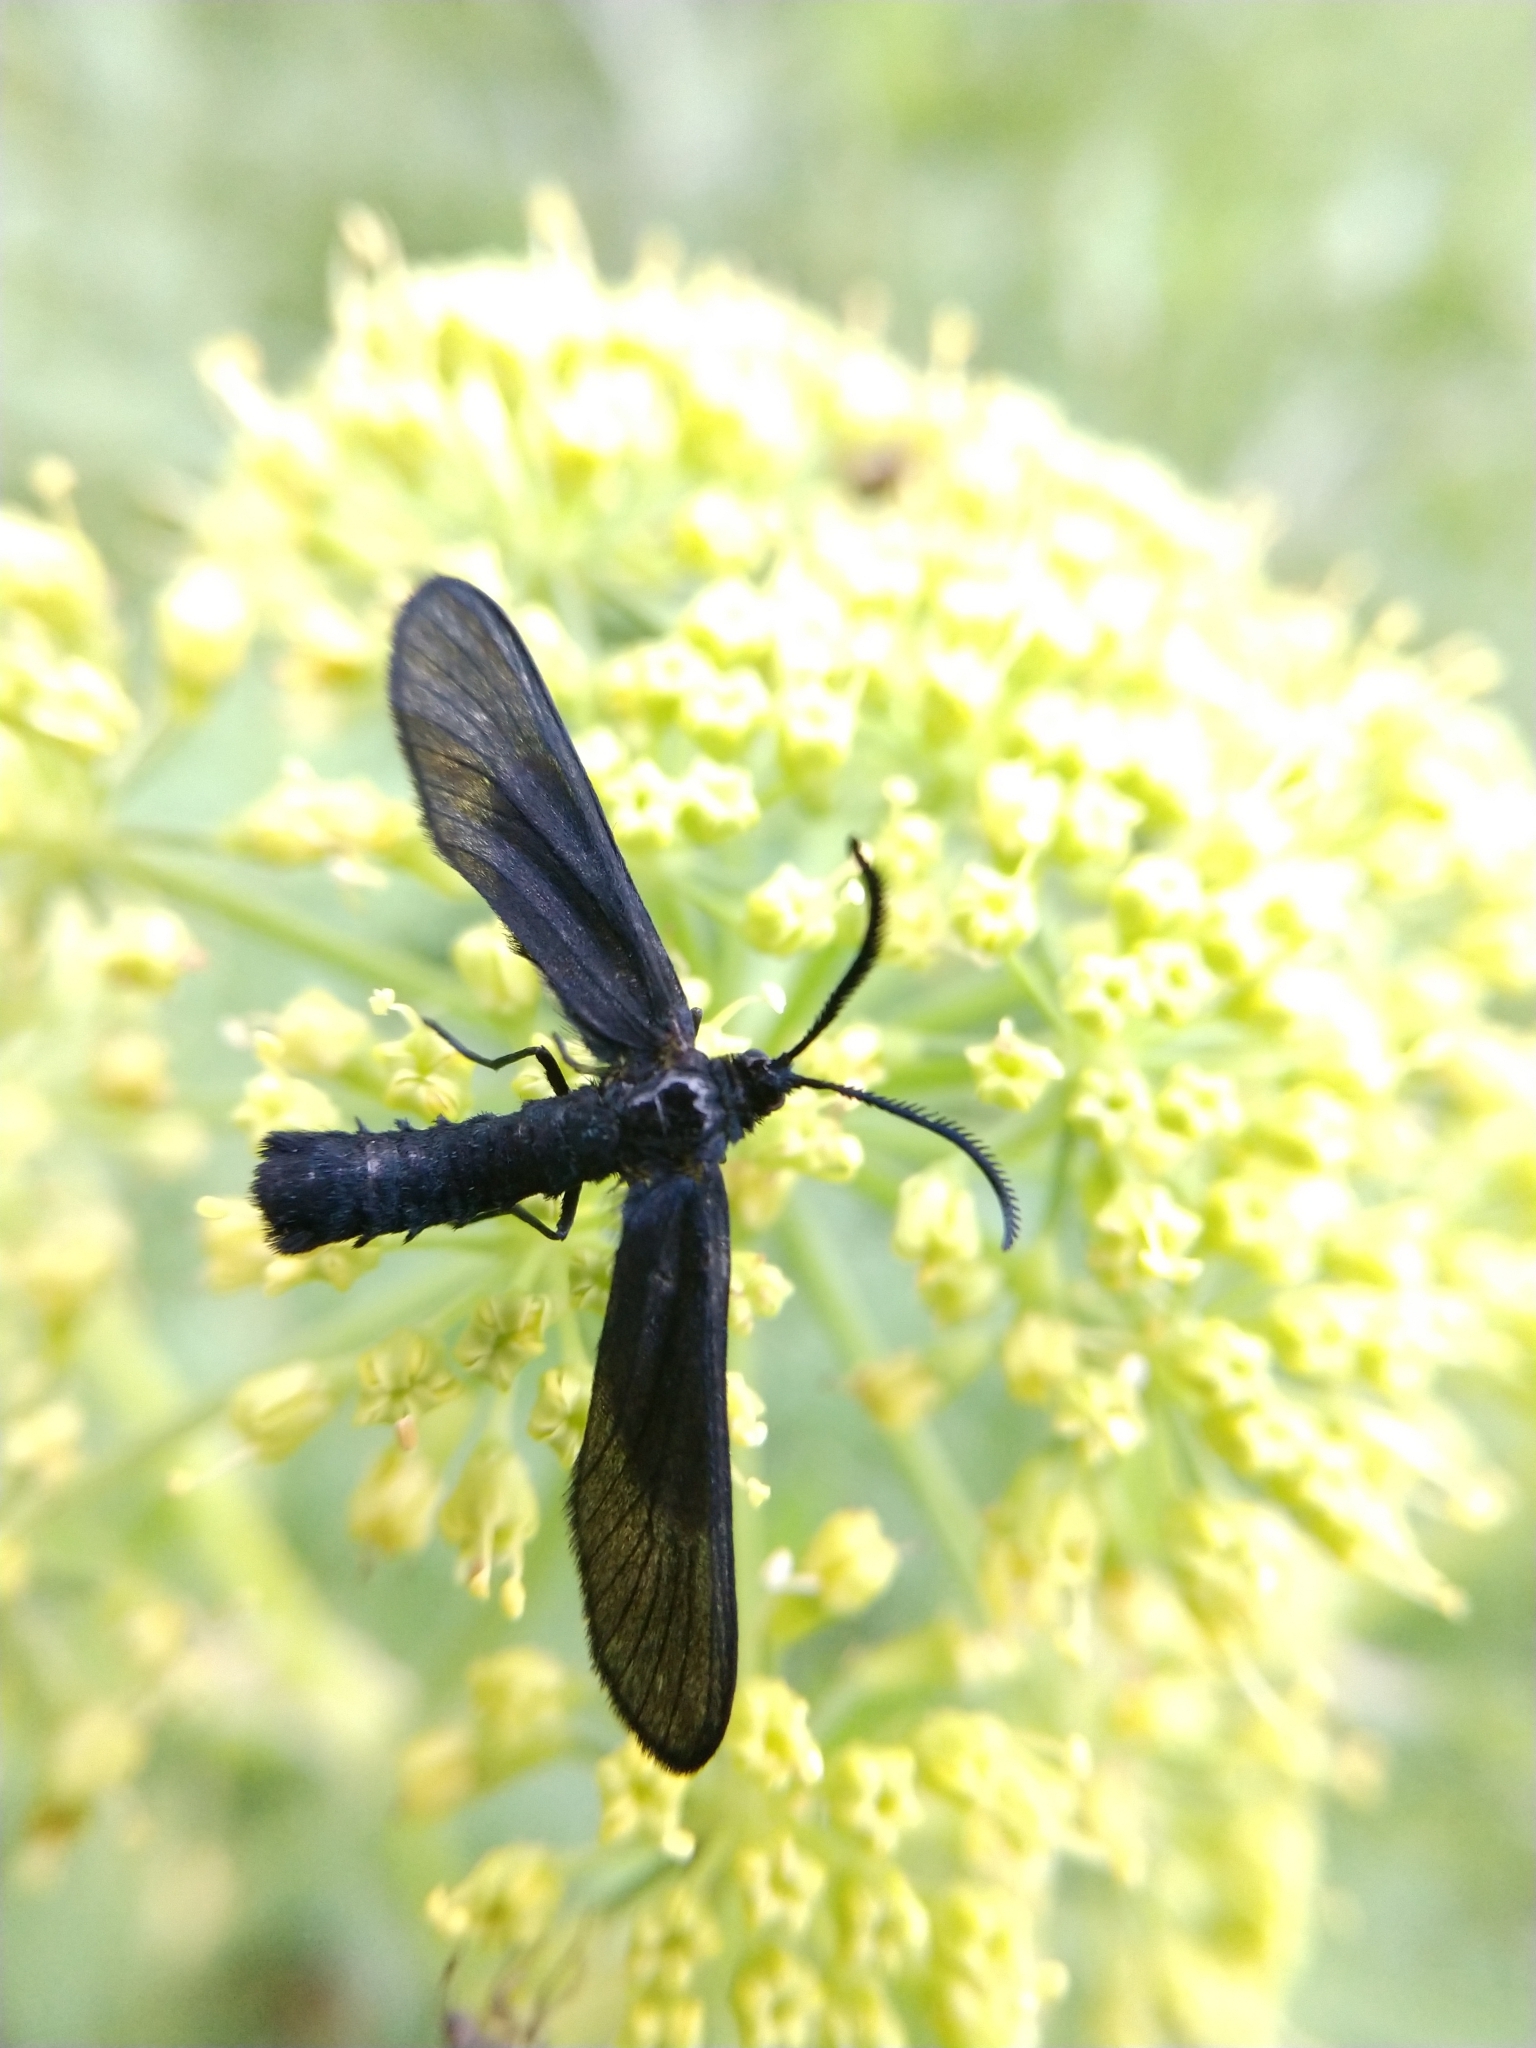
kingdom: Animalia
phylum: Arthropoda
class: Insecta
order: Lepidoptera
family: Zygaenidae
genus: Harrisina
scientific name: Harrisina coracina
